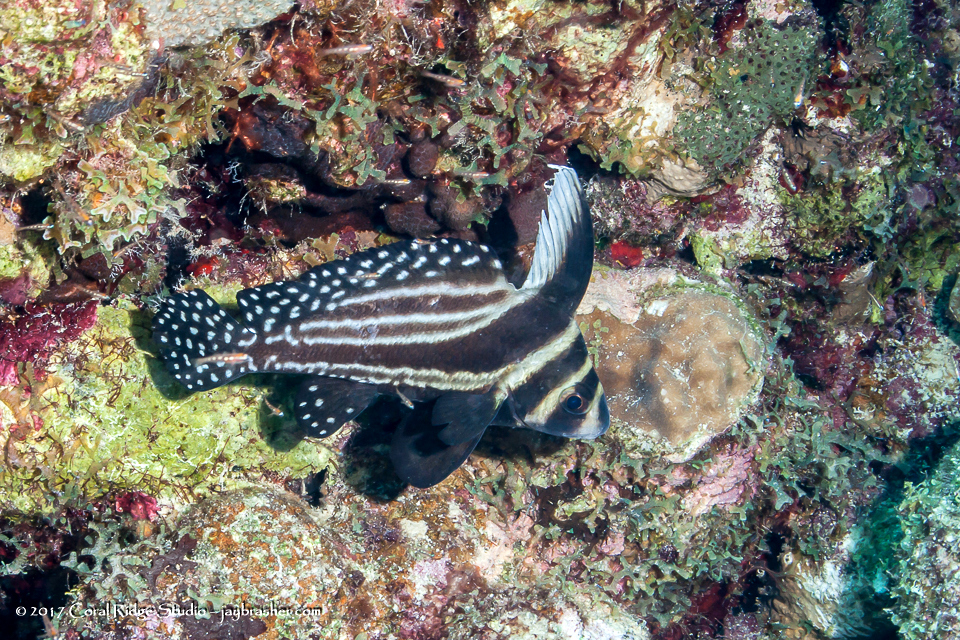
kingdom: Animalia
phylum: Chordata
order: Perciformes
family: Sciaenidae
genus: Equetus
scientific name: Equetus punctatus
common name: Spotted drum
